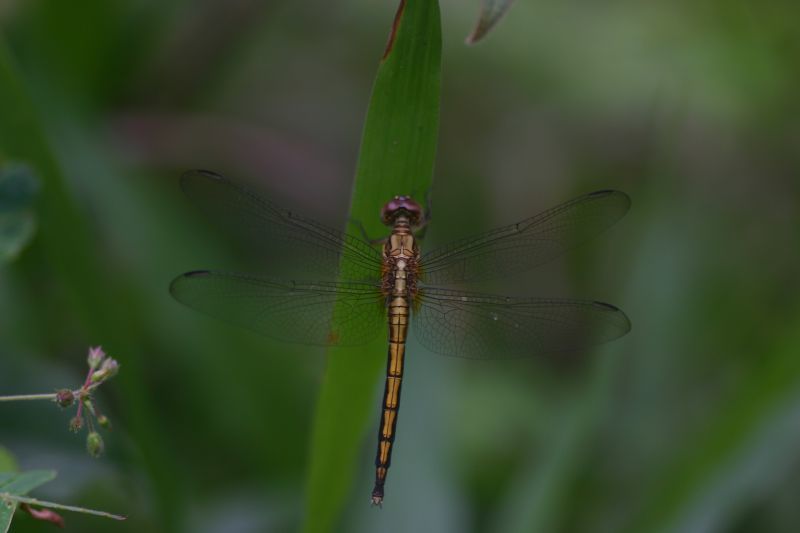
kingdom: Animalia
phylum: Arthropoda
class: Insecta
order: Odonata
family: Libellulidae
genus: Orthetrum
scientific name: Orthetrum glaucum
